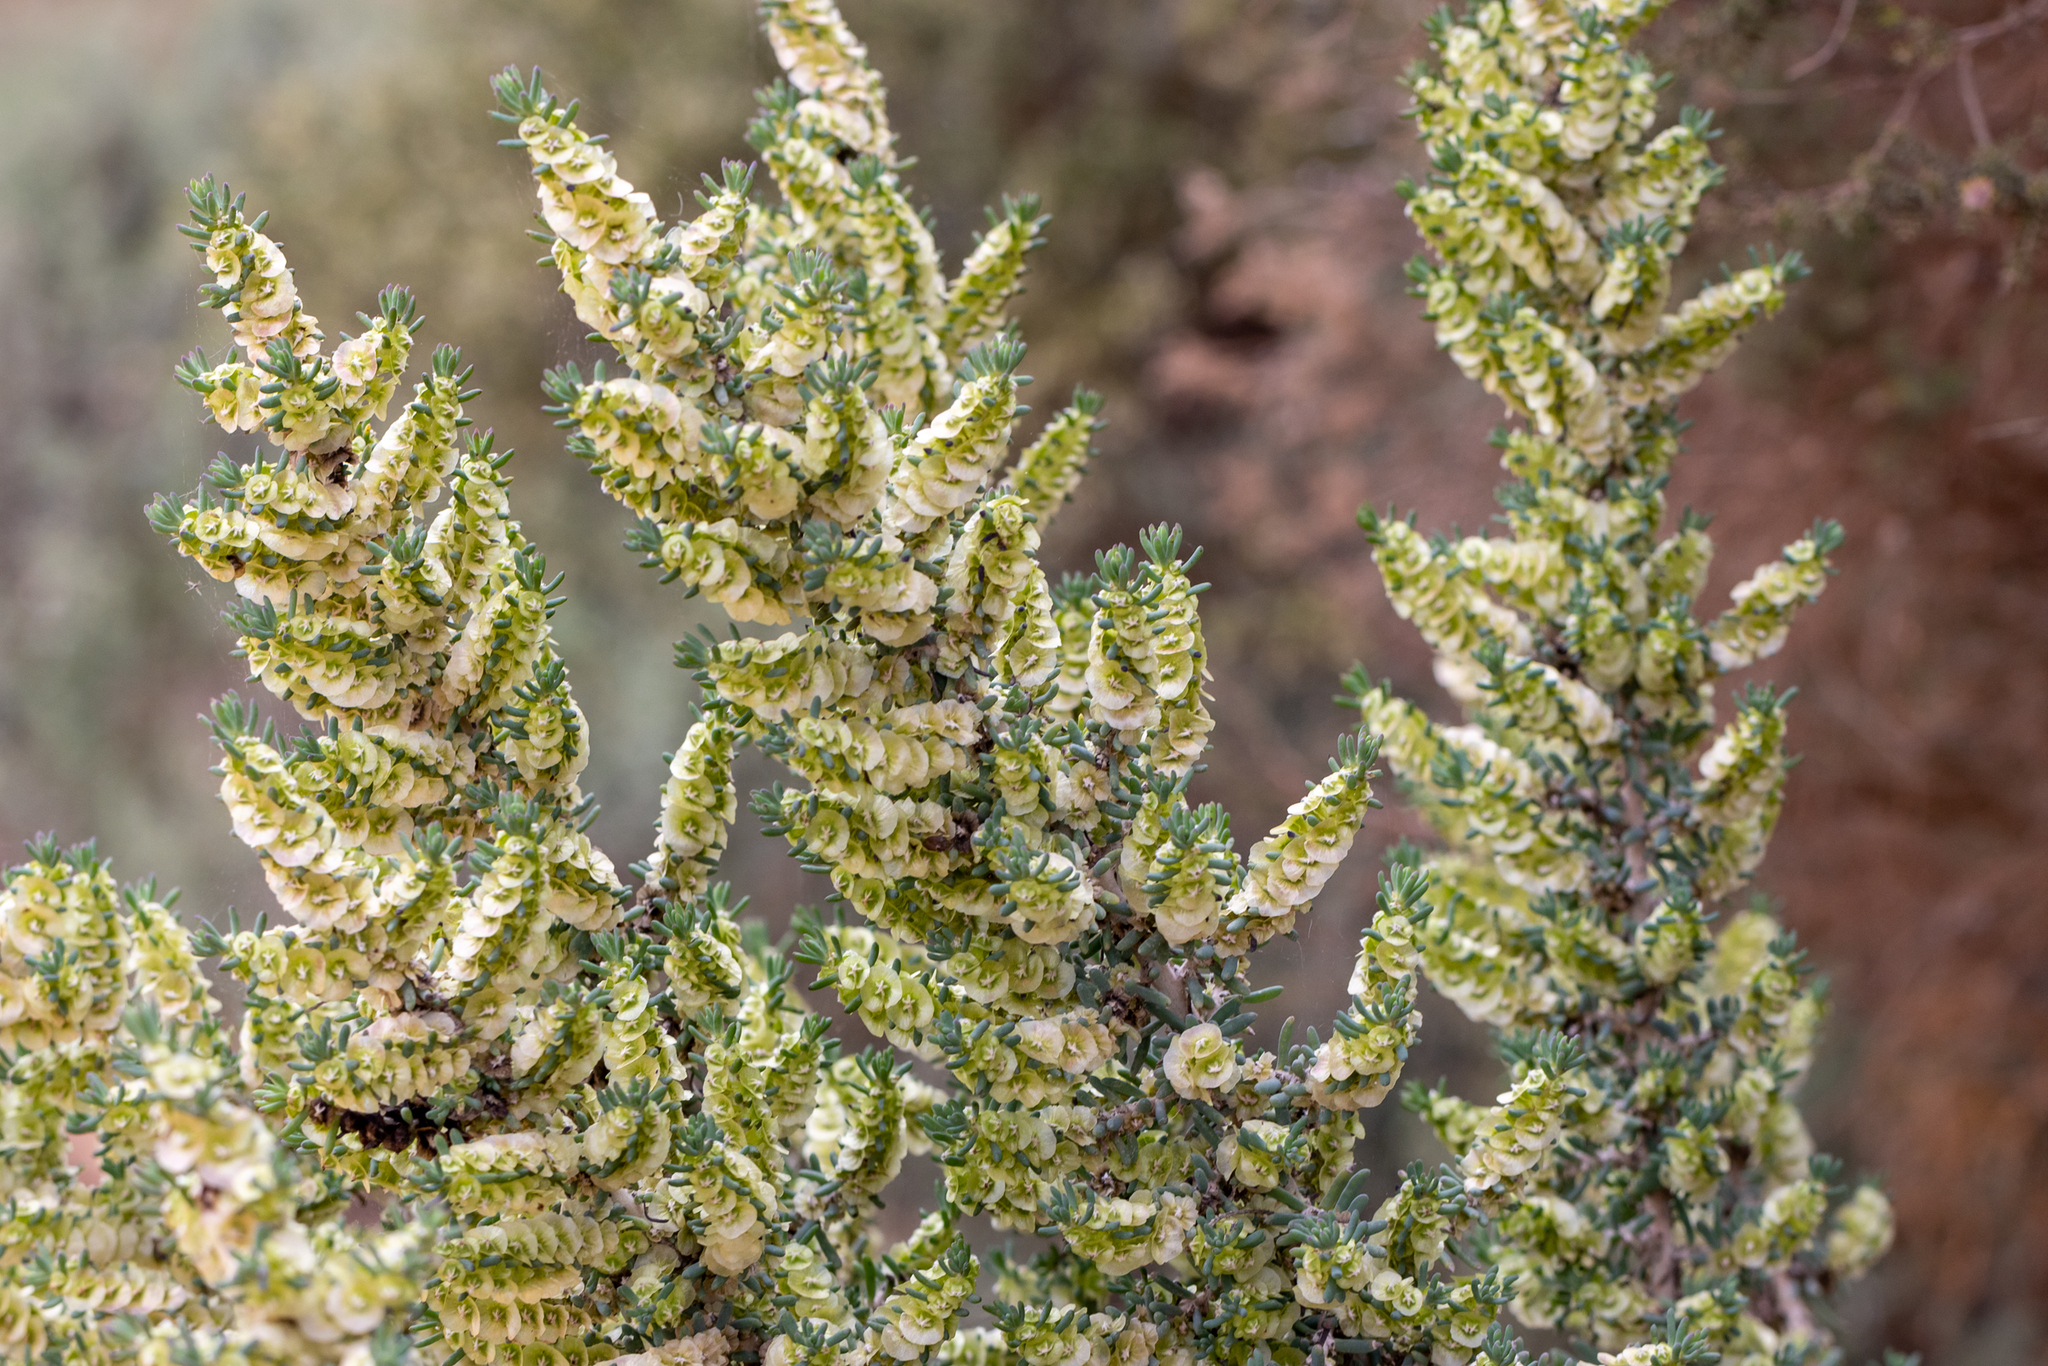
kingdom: Plantae
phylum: Tracheophyta
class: Magnoliopsida
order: Caryophyllales
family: Amaranthaceae
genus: Maireana
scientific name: Maireana pentatropis
